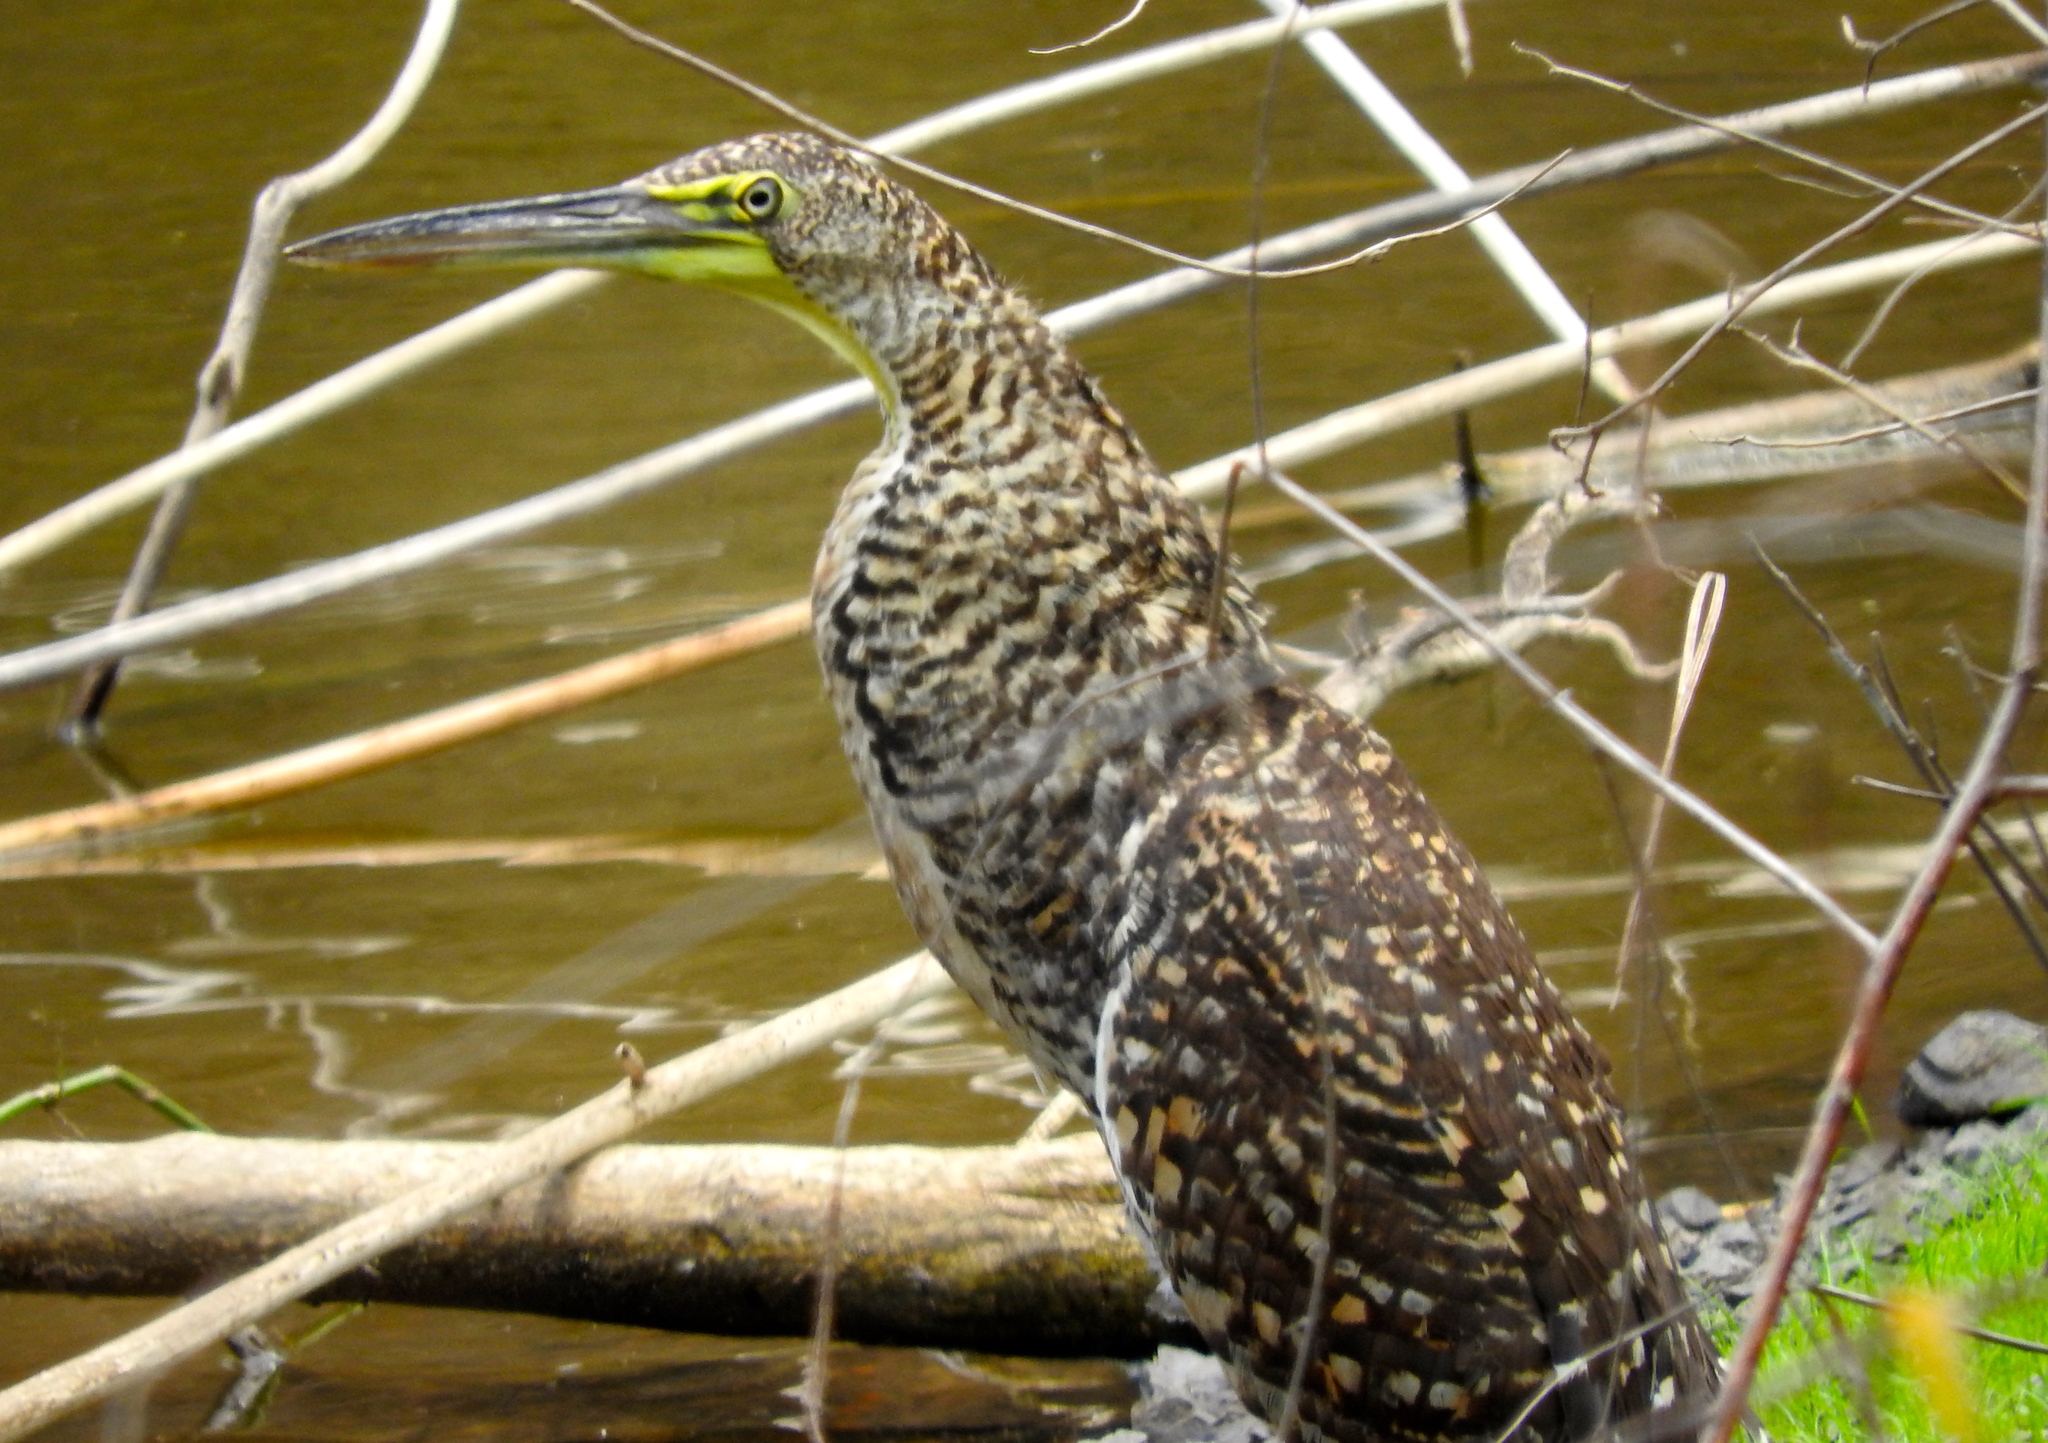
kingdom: Animalia
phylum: Chordata
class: Aves
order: Pelecaniformes
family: Ardeidae
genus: Tigrisoma
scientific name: Tigrisoma mexicanum
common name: Bare-throated tiger-heron
